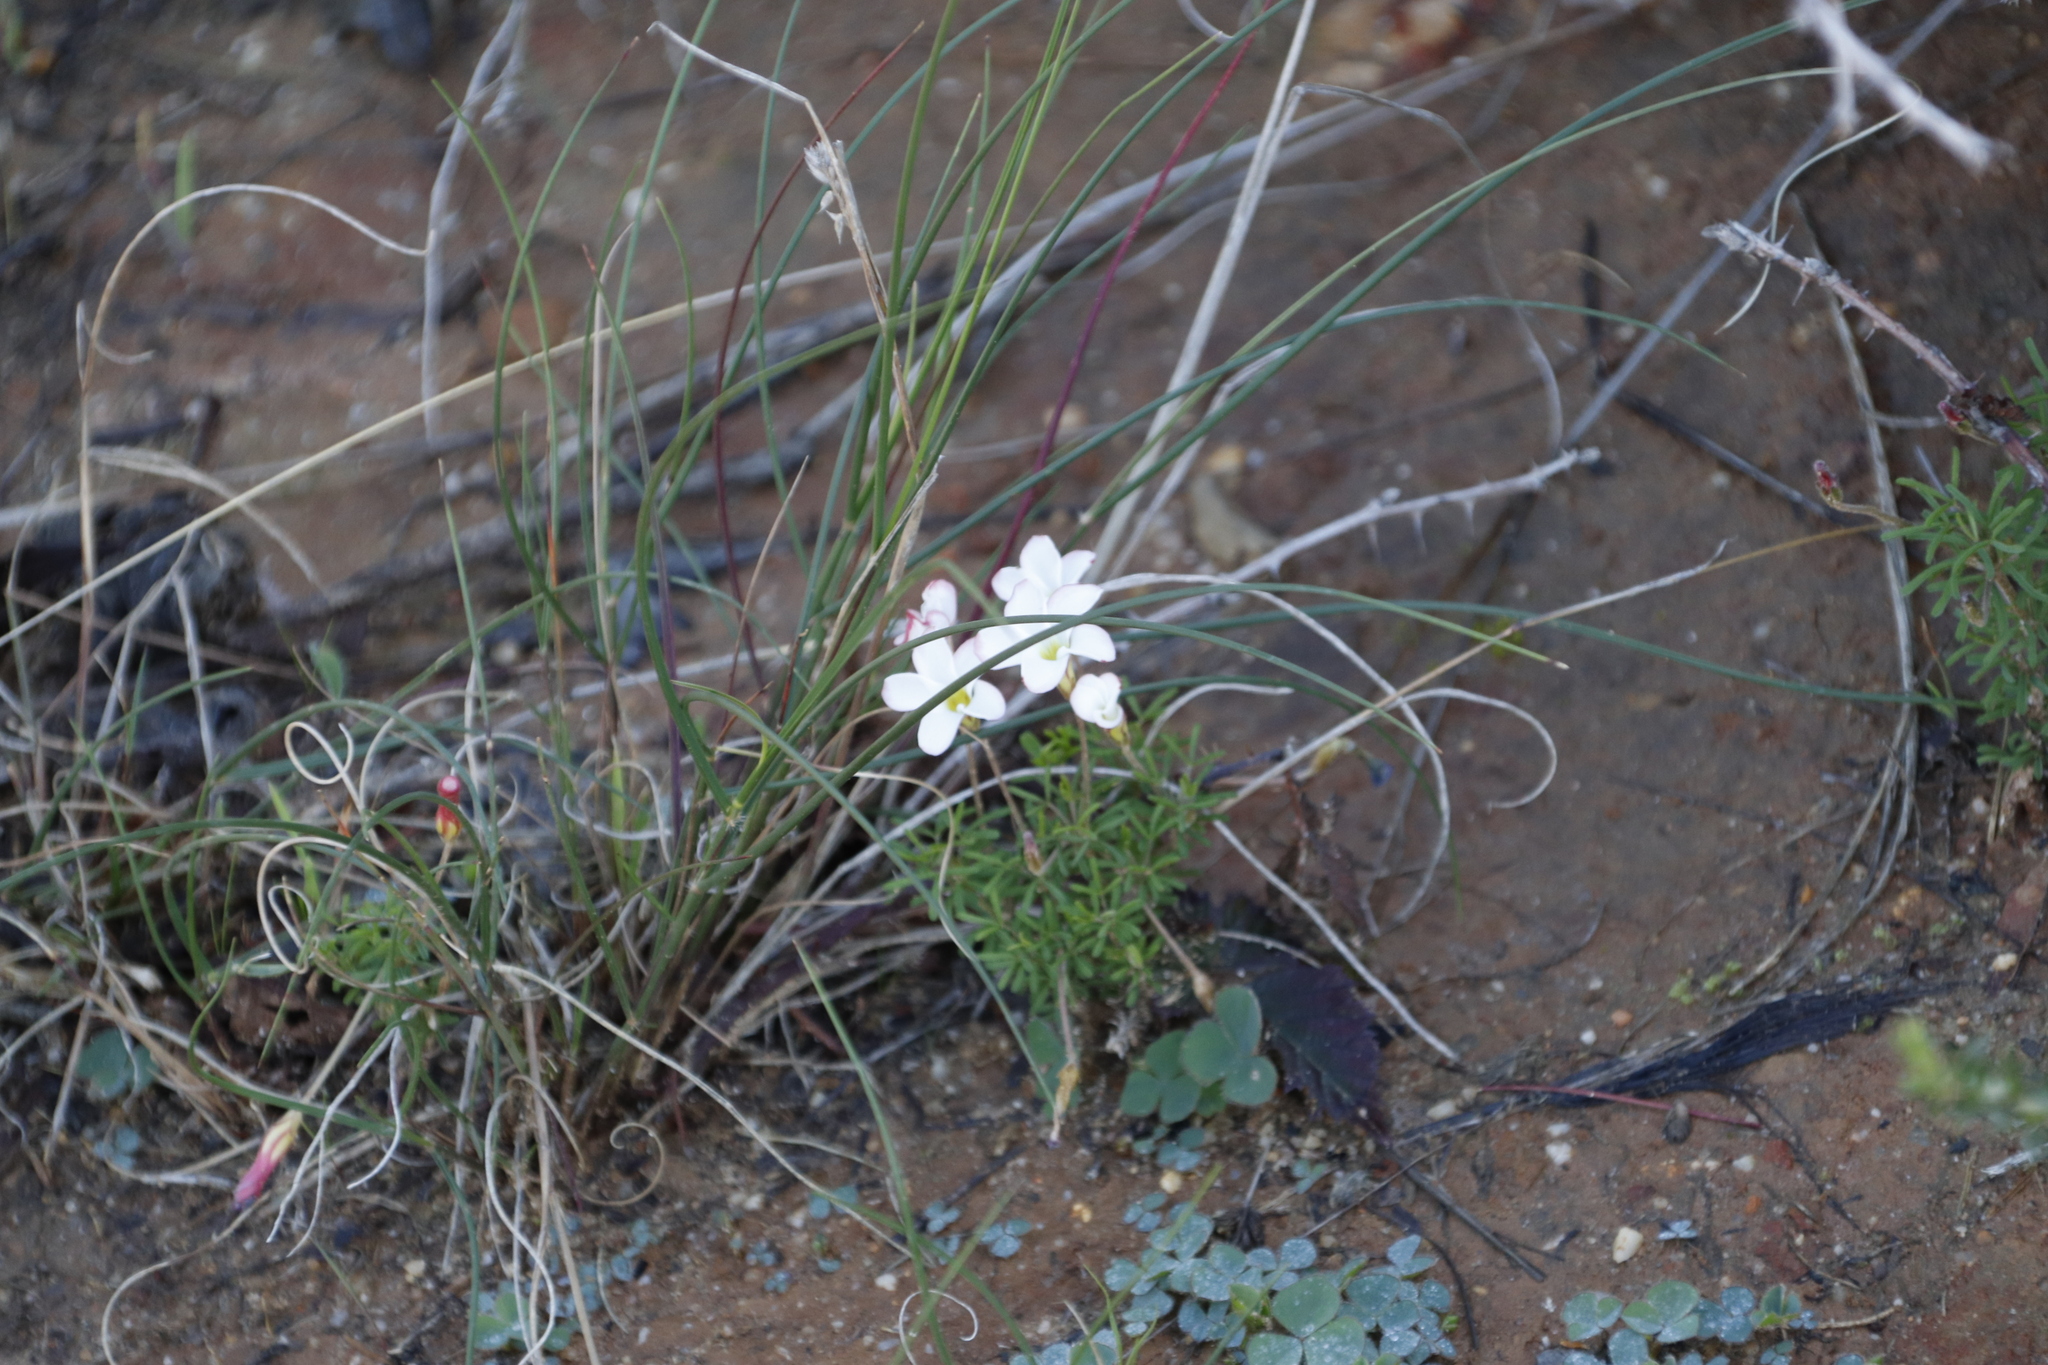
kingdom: Plantae
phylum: Tracheophyta
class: Magnoliopsida
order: Oxalidales
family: Oxalidaceae
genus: Oxalis
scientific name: Oxalis versicolor
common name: Peppermint rock oxalis
